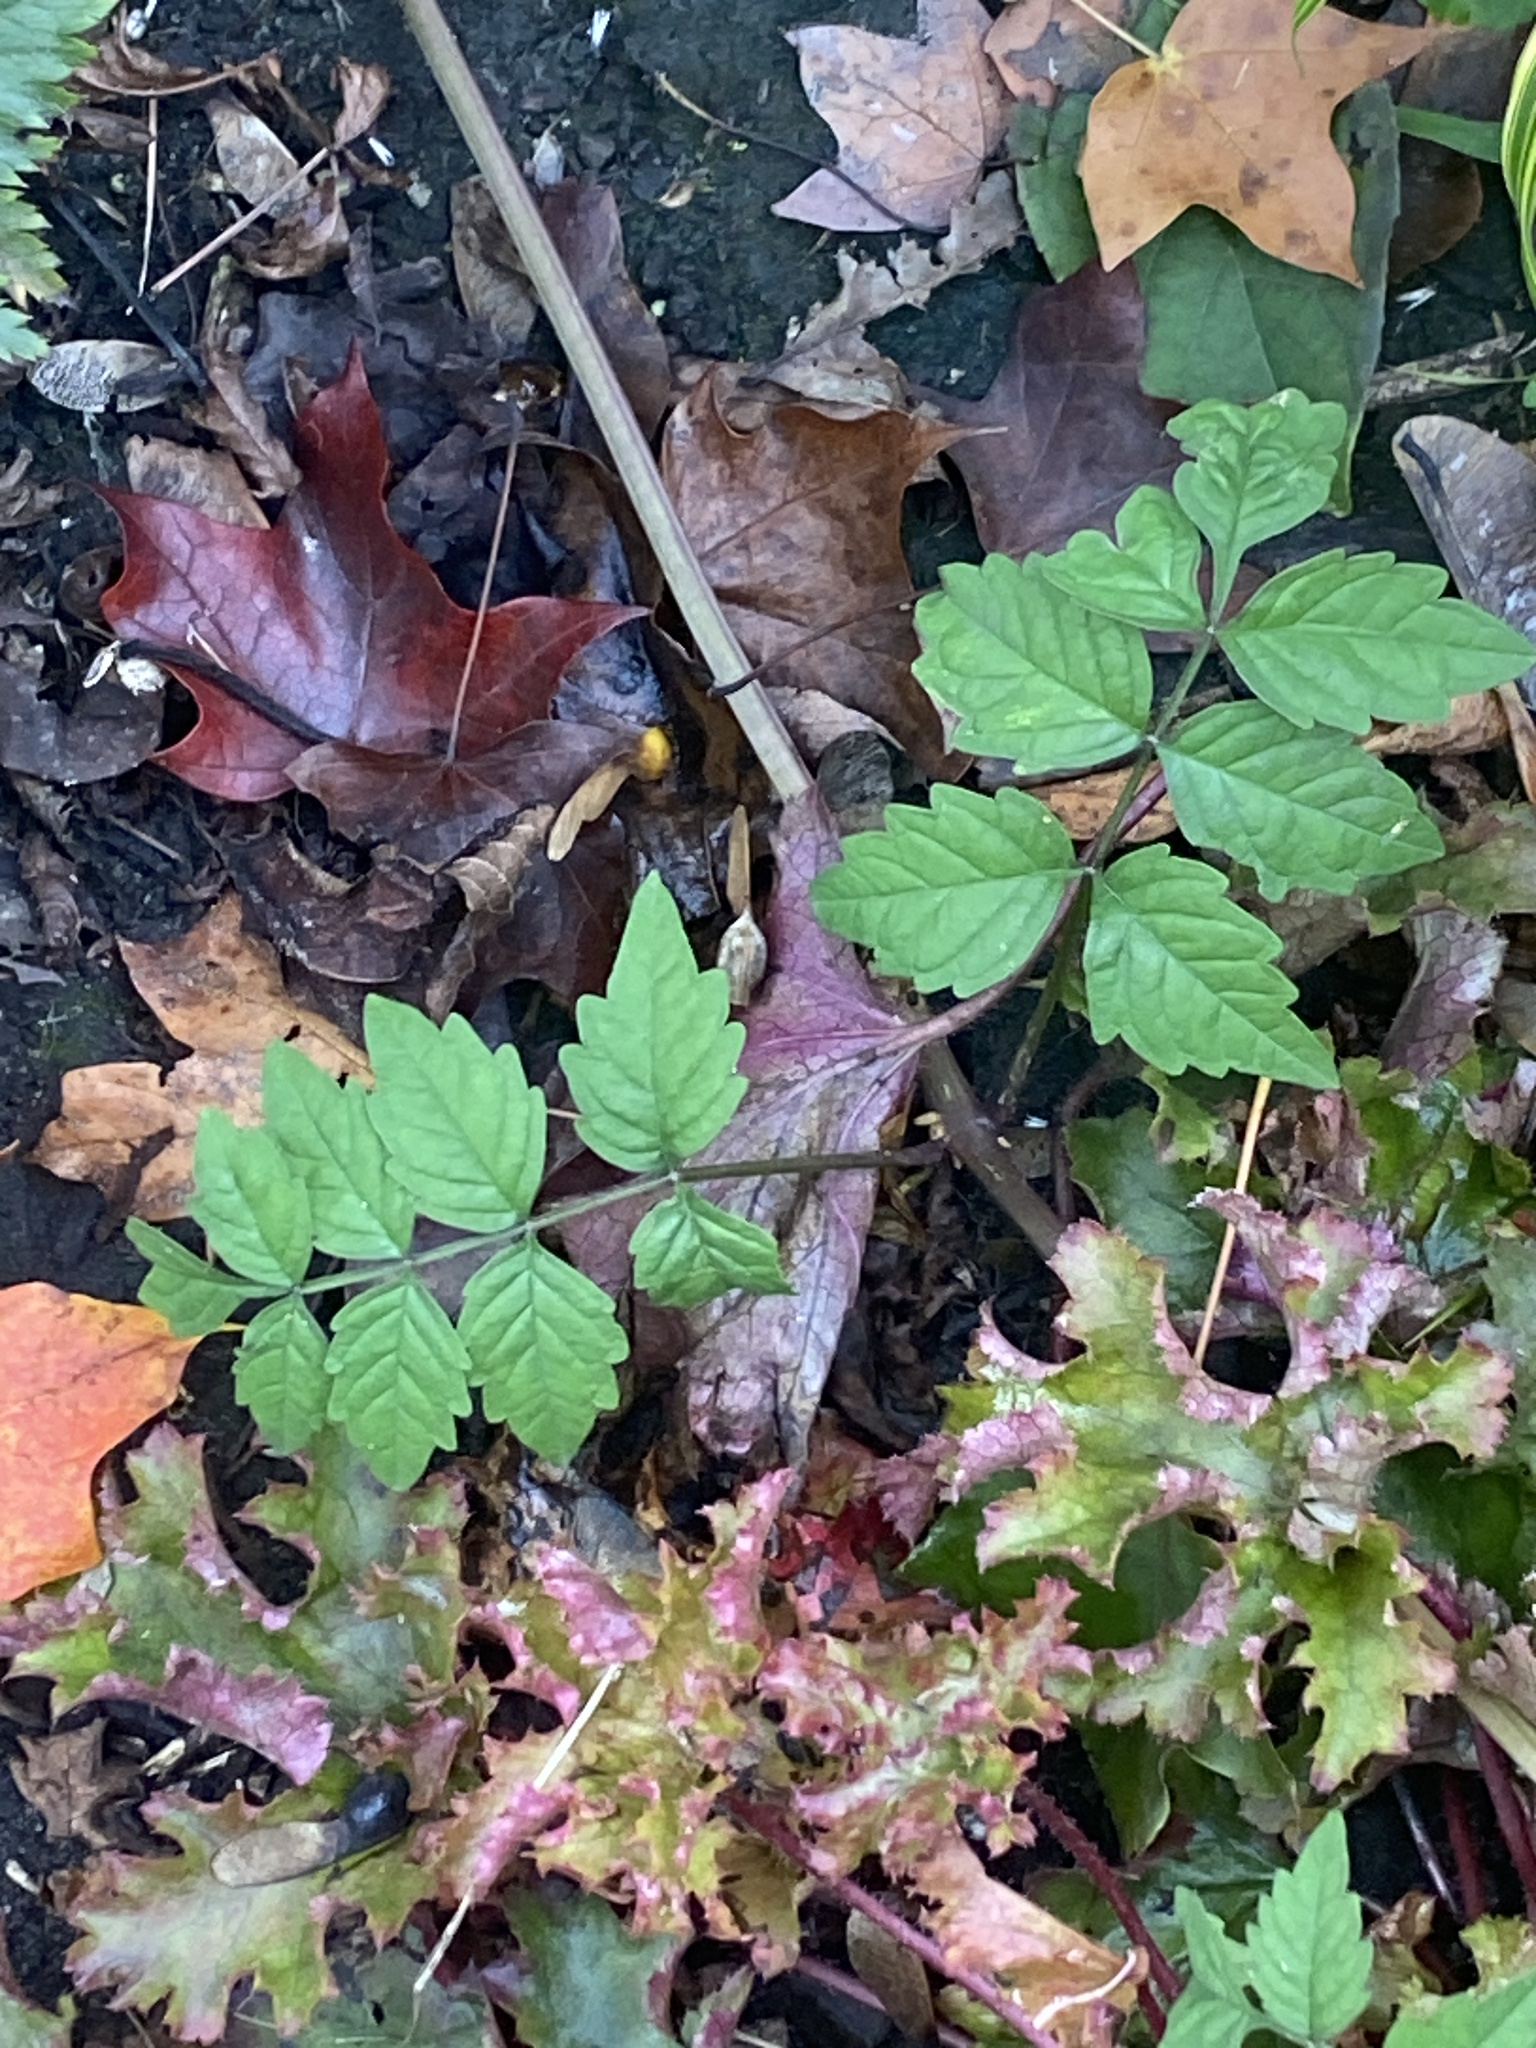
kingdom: Plantae
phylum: Tracheophyta
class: Magnoliopsida
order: Lamiales
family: Bignoniaceae
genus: Campsis
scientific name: Campsis radicans
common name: Trumpet-creeper
